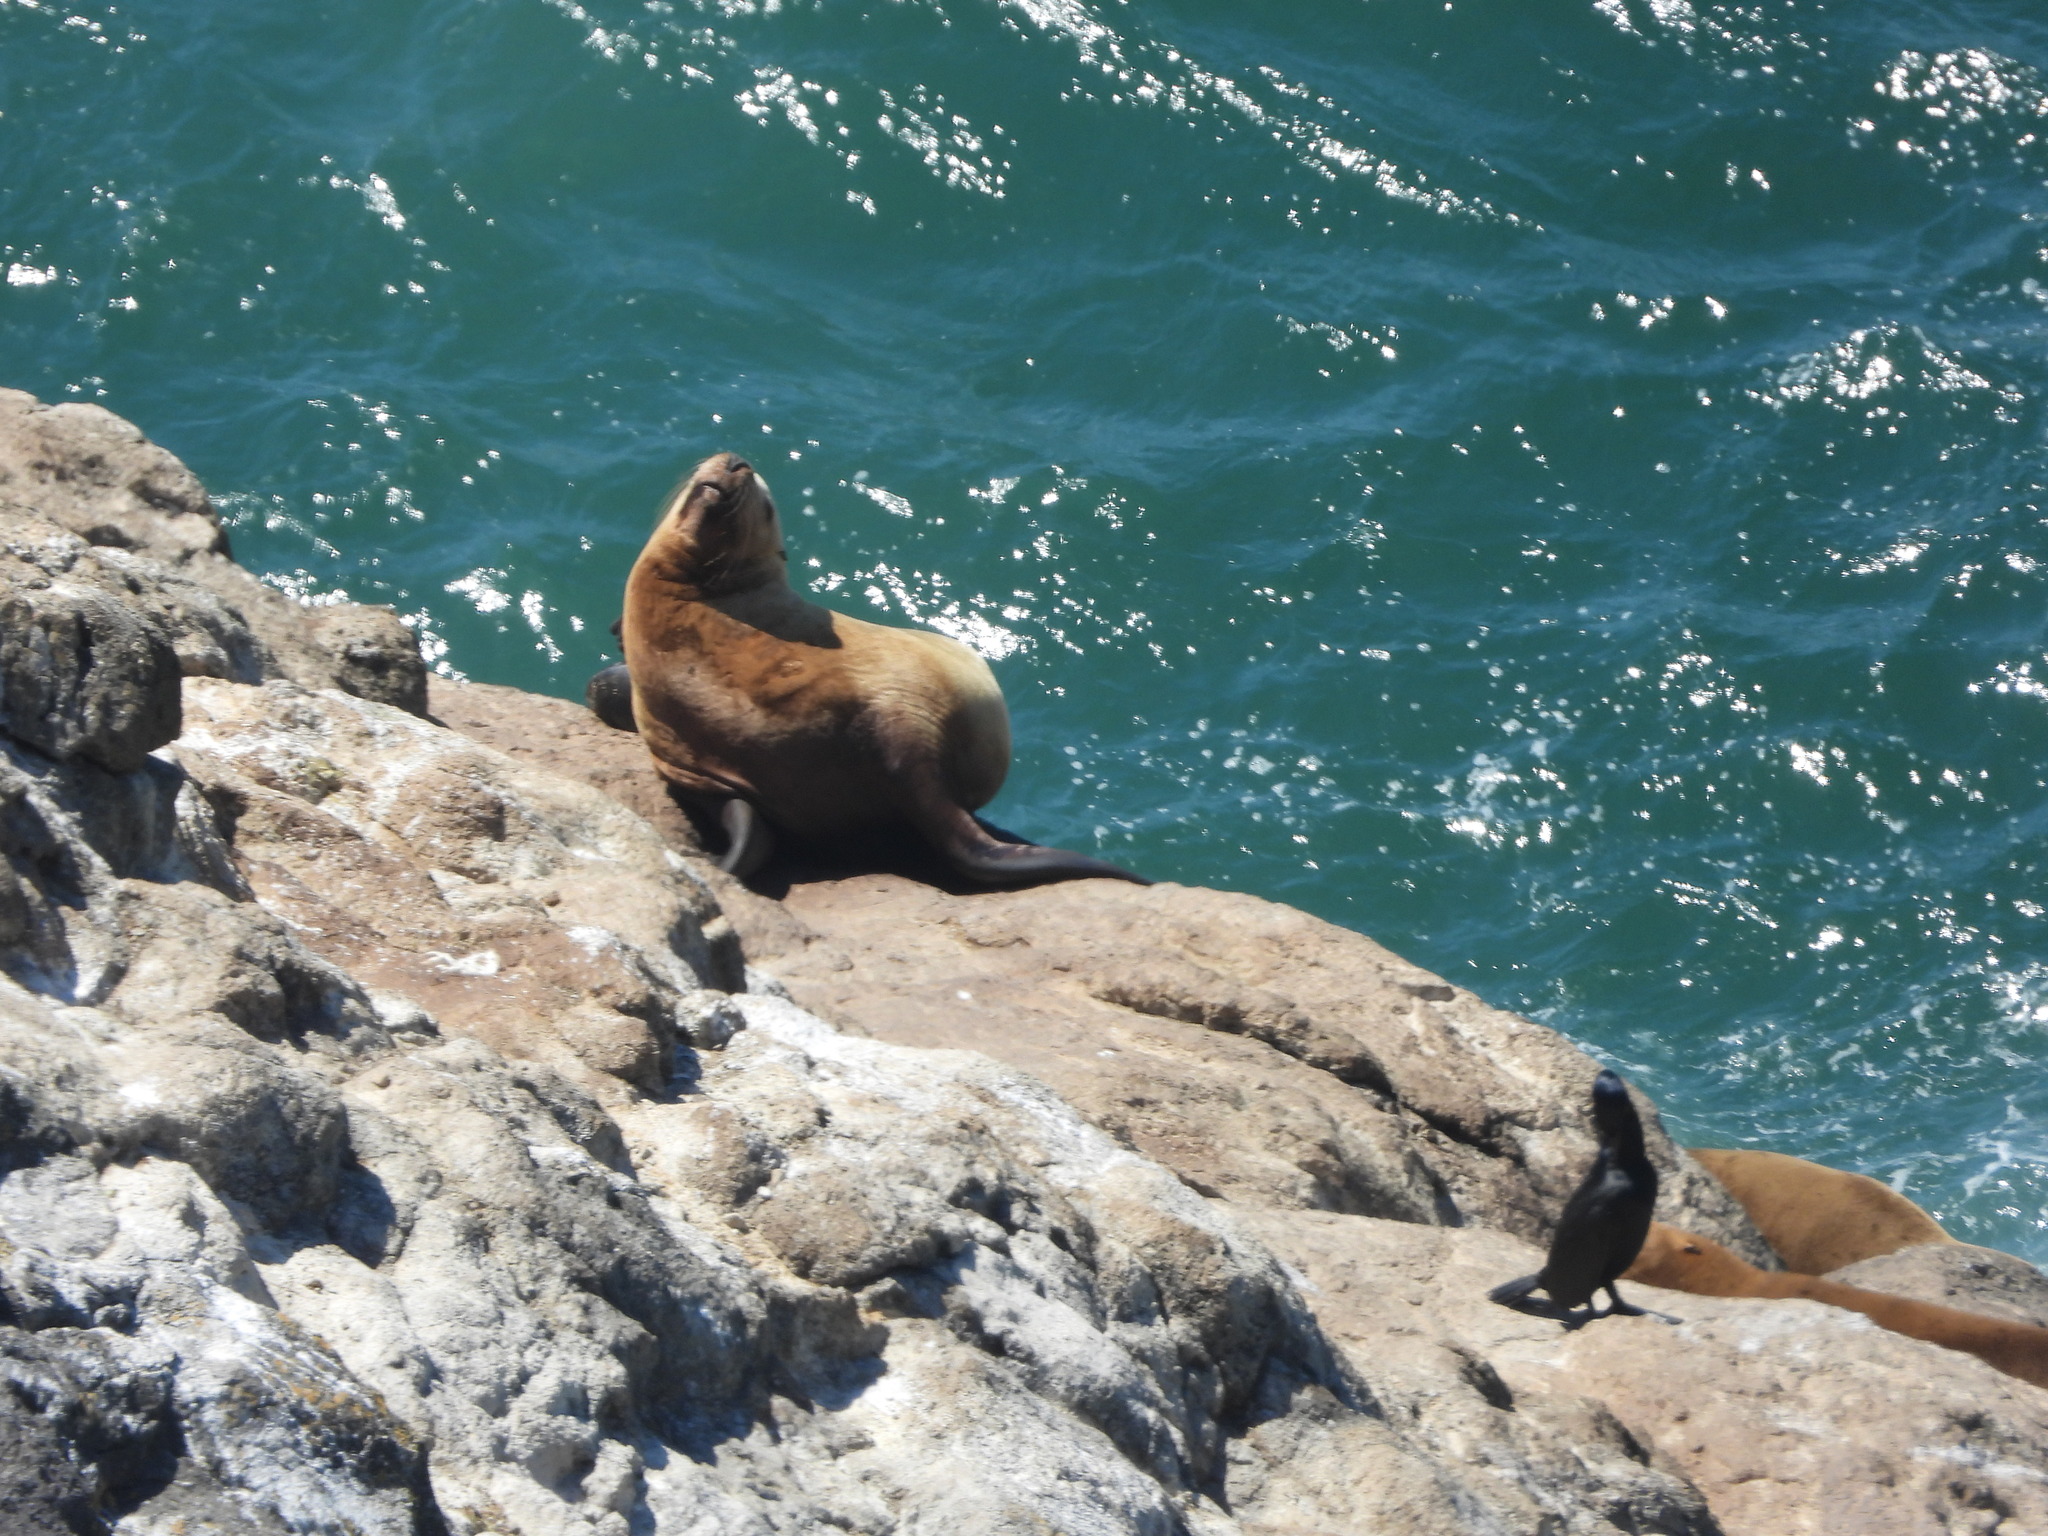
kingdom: Animalia
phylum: Chordata
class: Mammalia
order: Carnivora
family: Otariidae
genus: Eumetopias
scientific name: Eumetopias jubatus
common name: Steller sea lion
